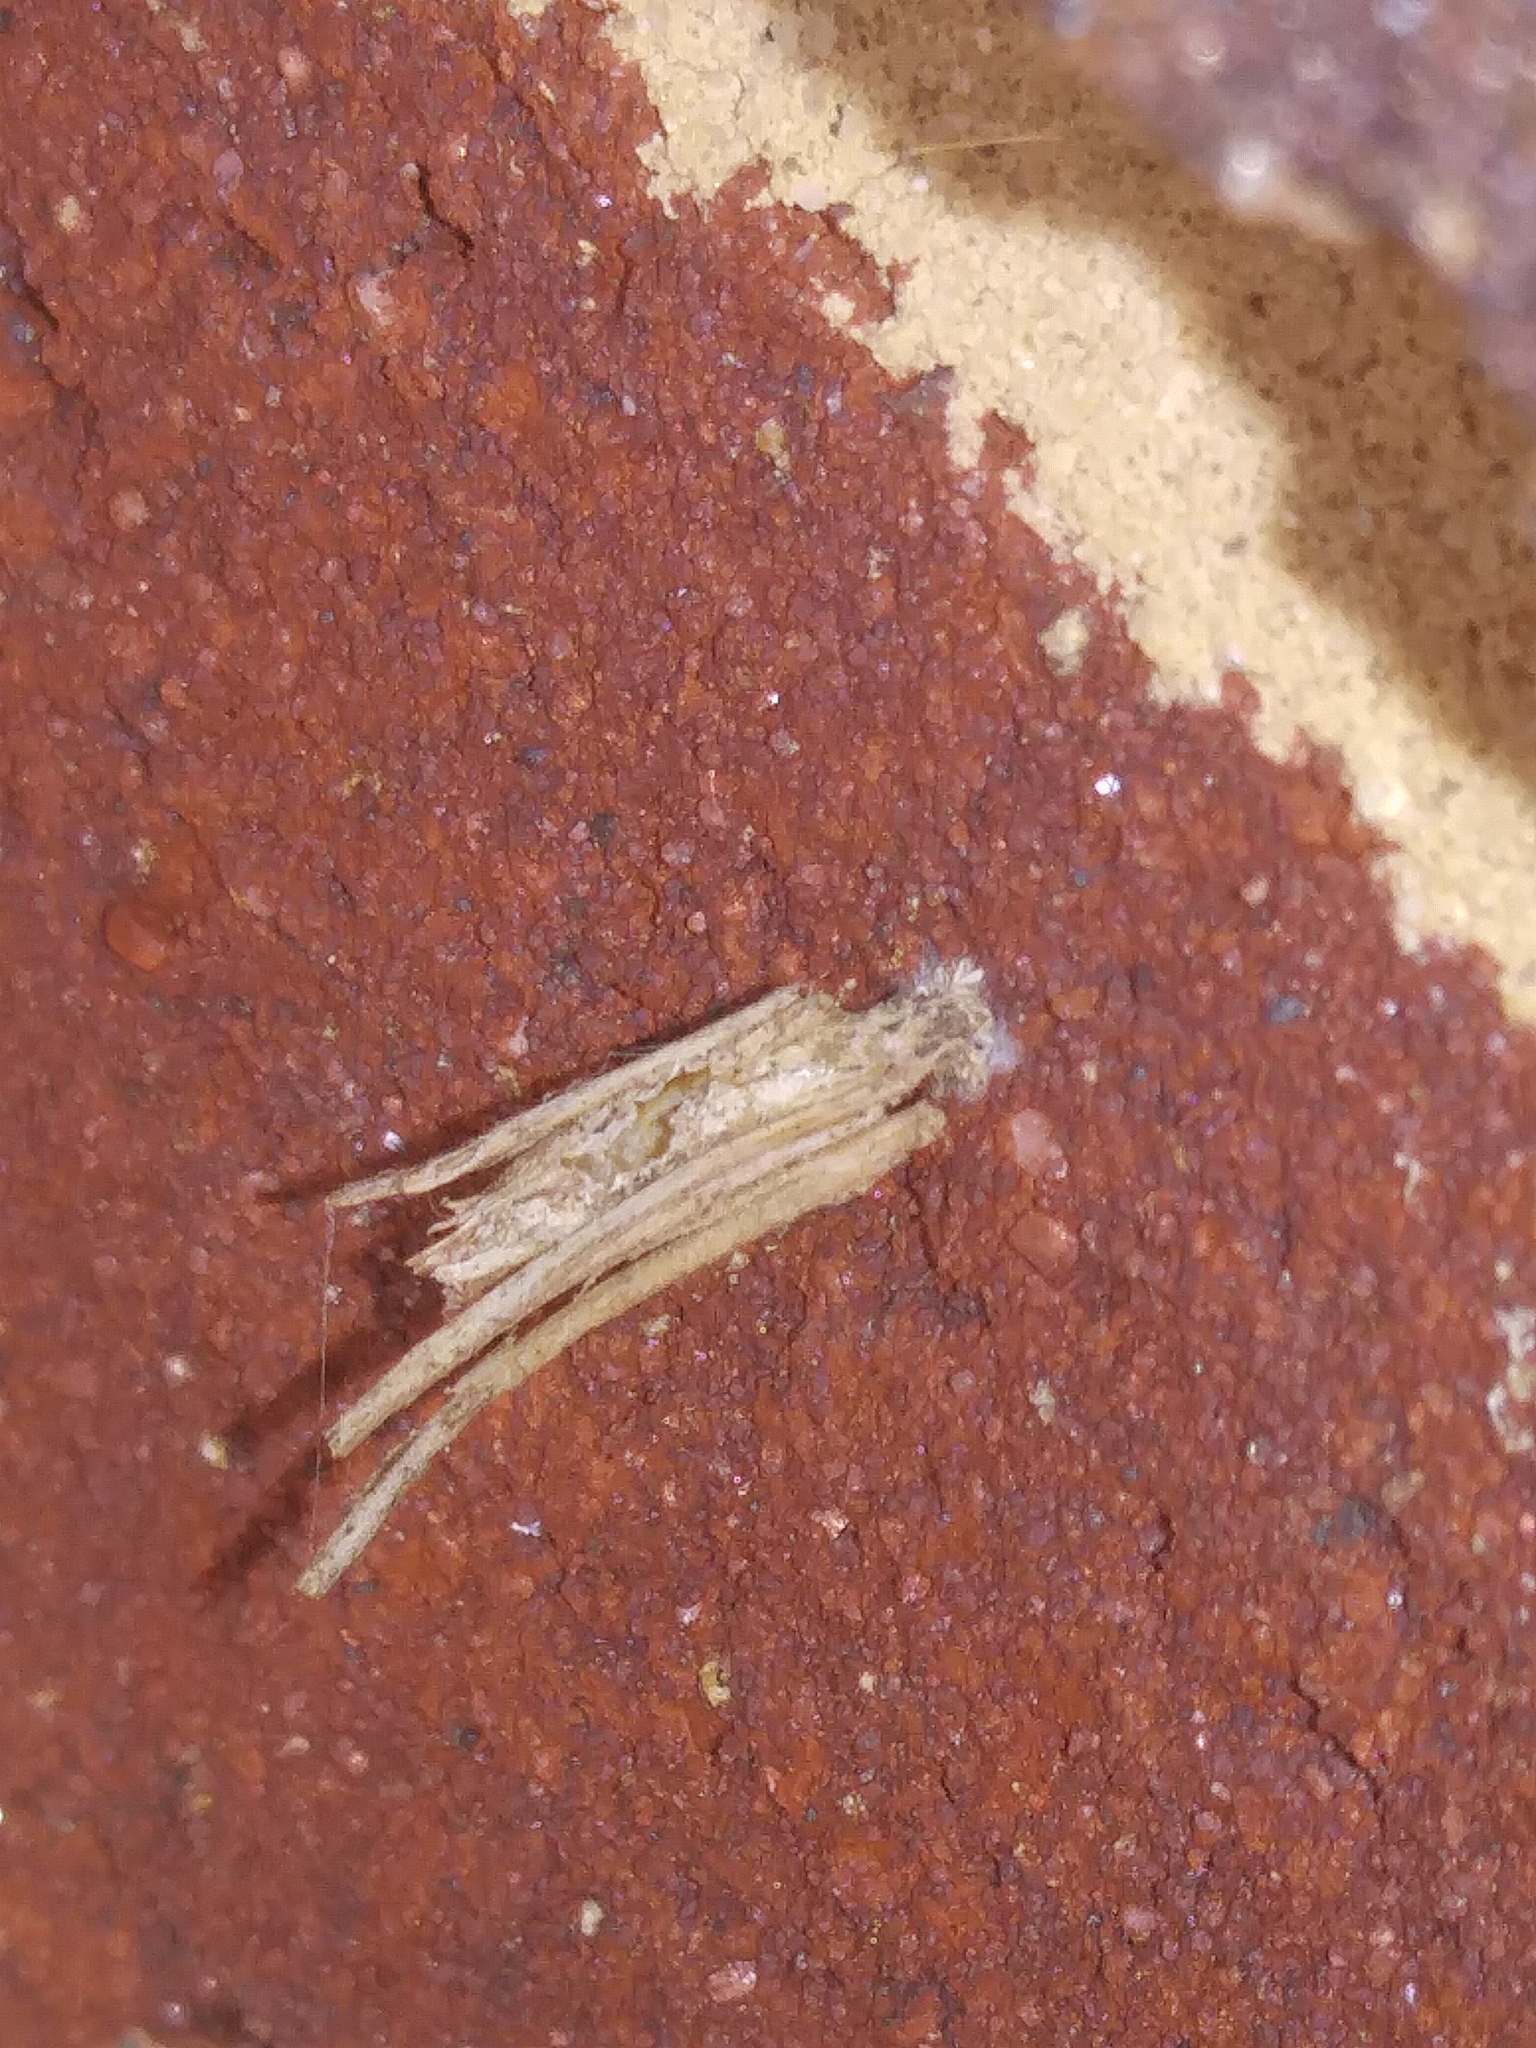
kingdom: Animalia
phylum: Arthropoda
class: Insecta
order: Lepidoptera
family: Psychidae
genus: Psyche
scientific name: Psyche casta
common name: Common sweep
